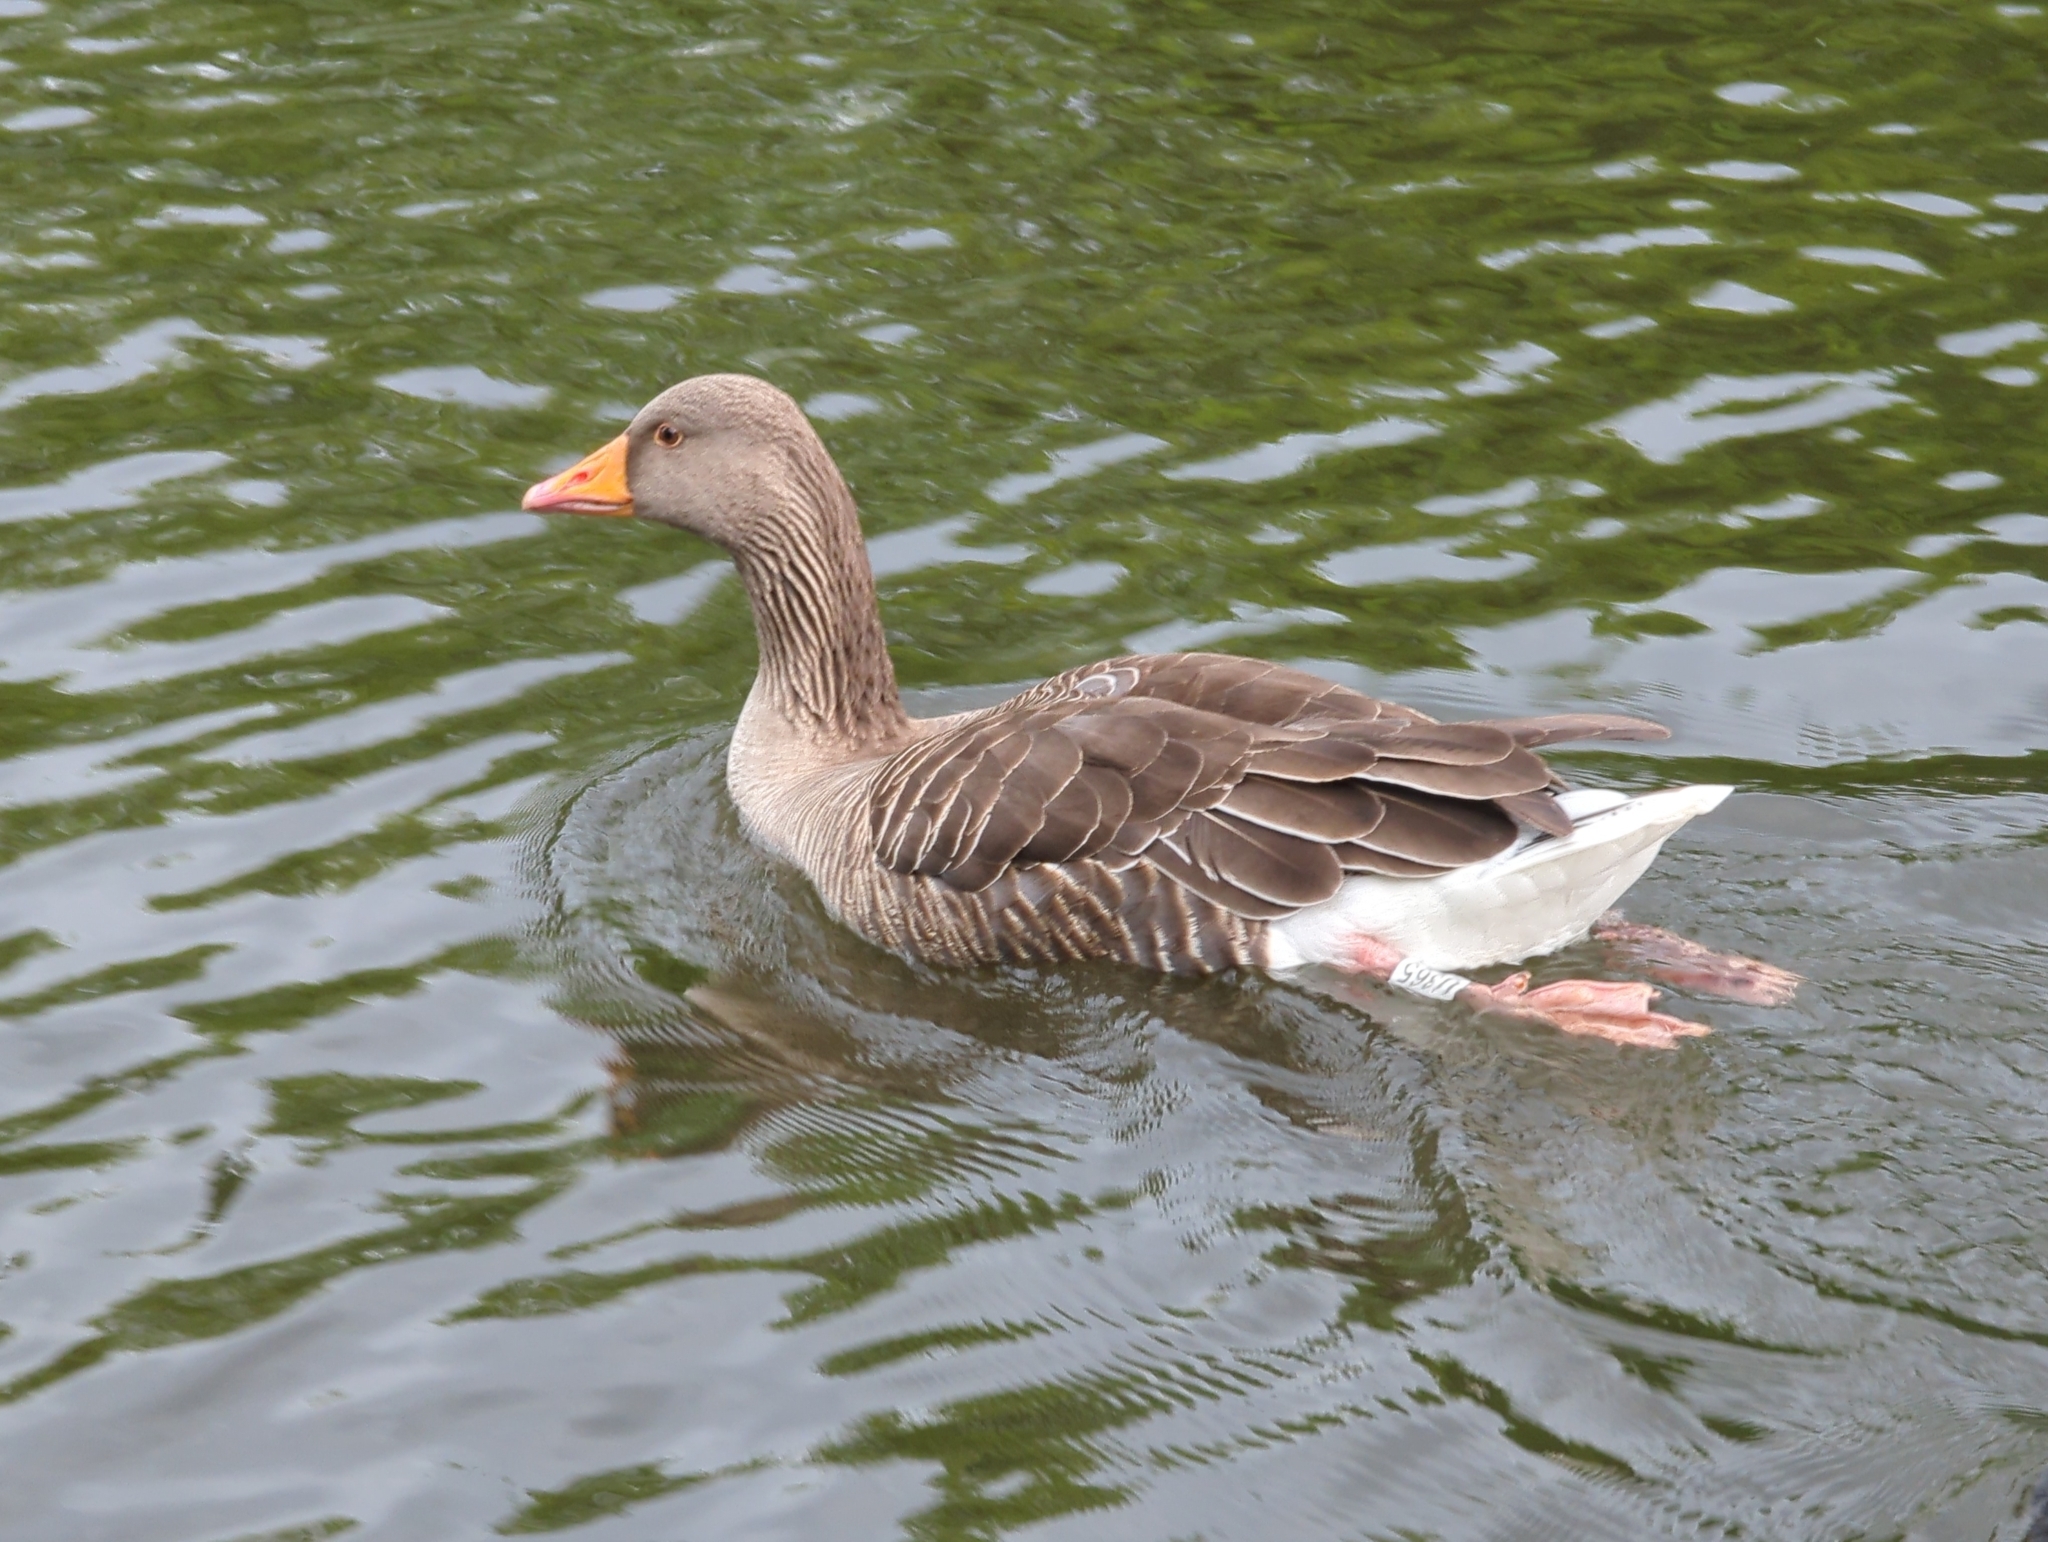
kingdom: Animalia
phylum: Chordata
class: Aves
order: Anseriformes
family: Anatidae
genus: Anser
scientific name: Anser anser
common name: Greylag goose
